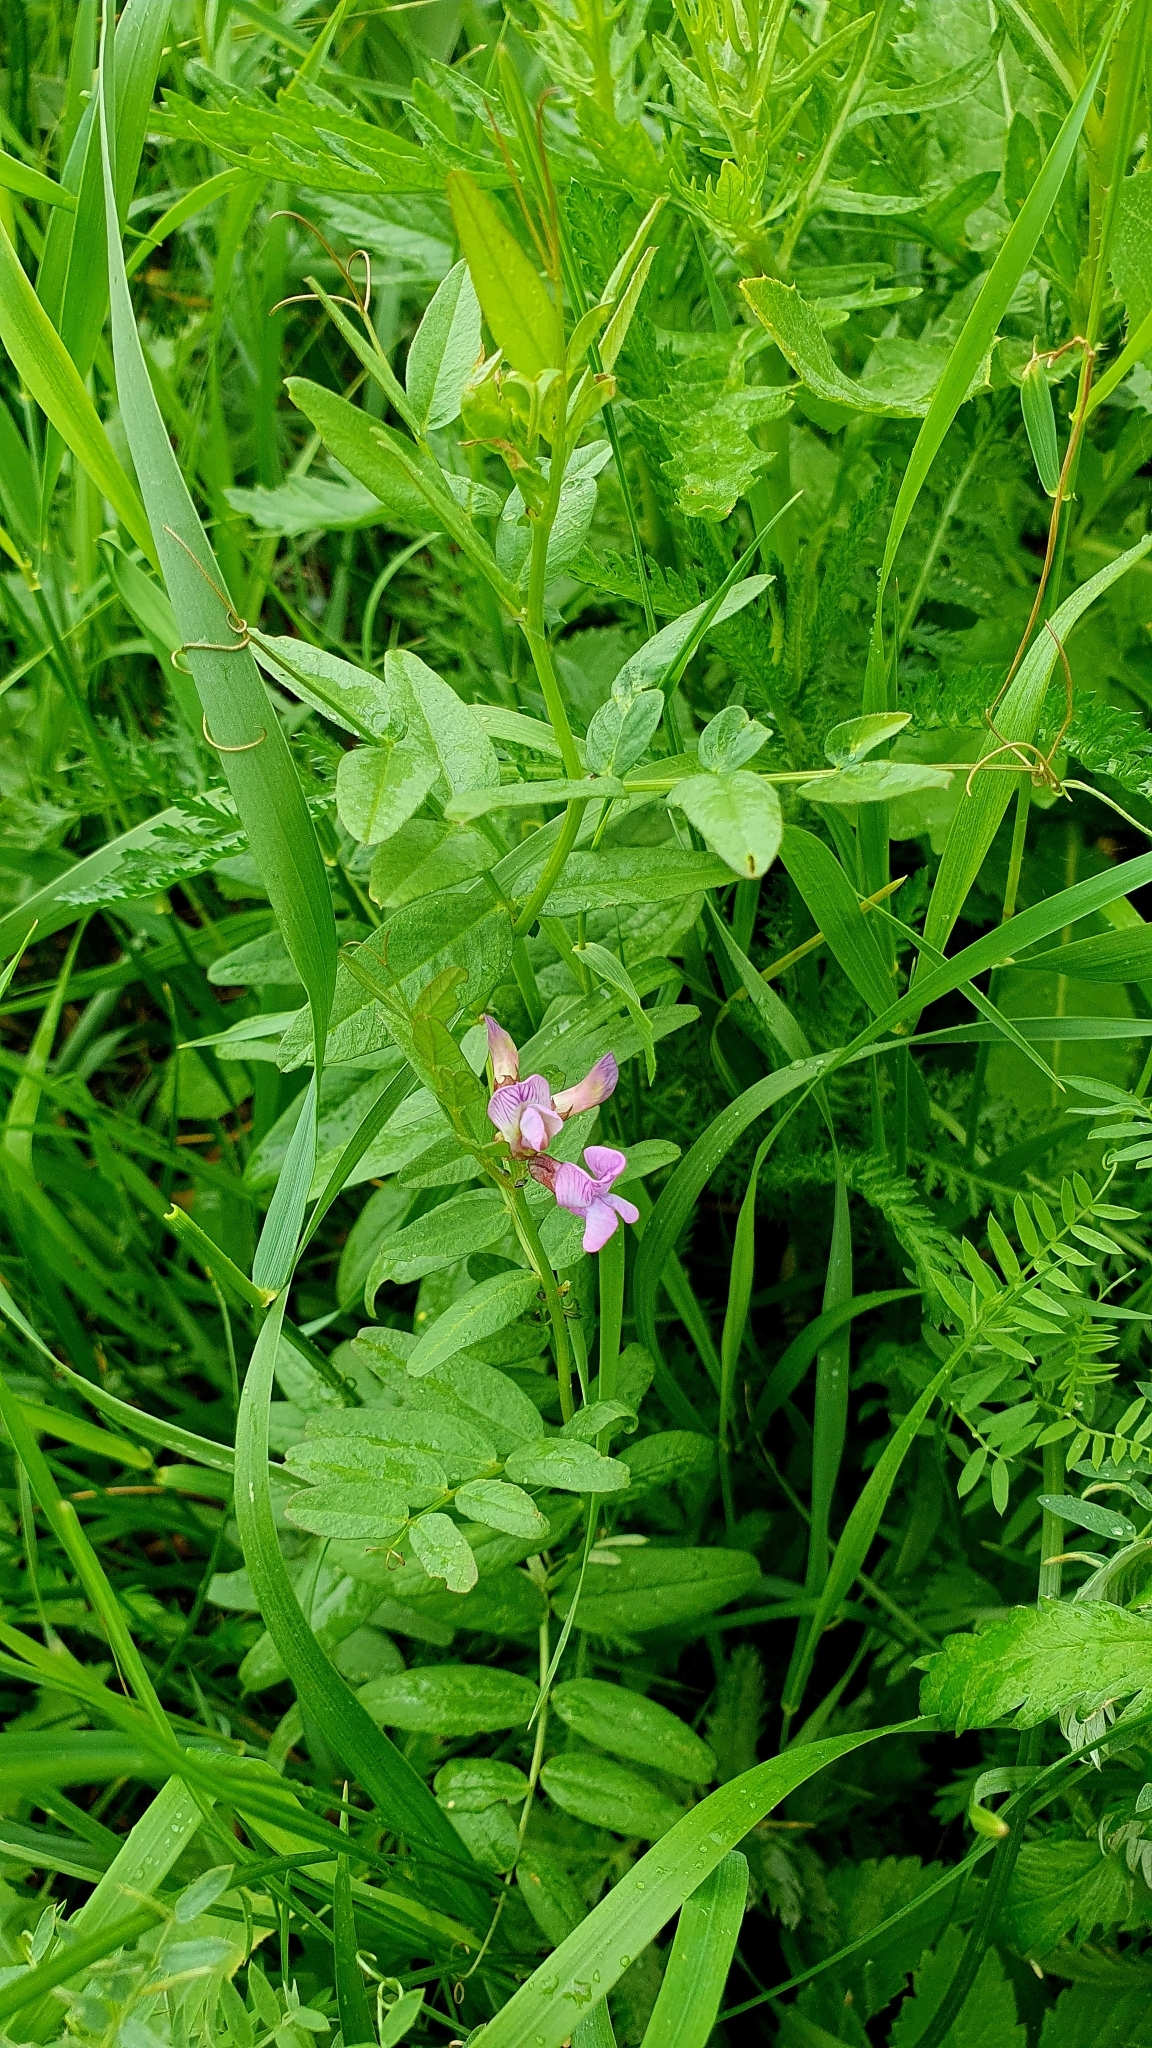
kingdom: Plantae
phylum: Tracheophyta
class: Magnoliopsida
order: Fabales
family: Fabaceae
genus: Vicia
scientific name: Vicia sepium
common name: Bush vetch
